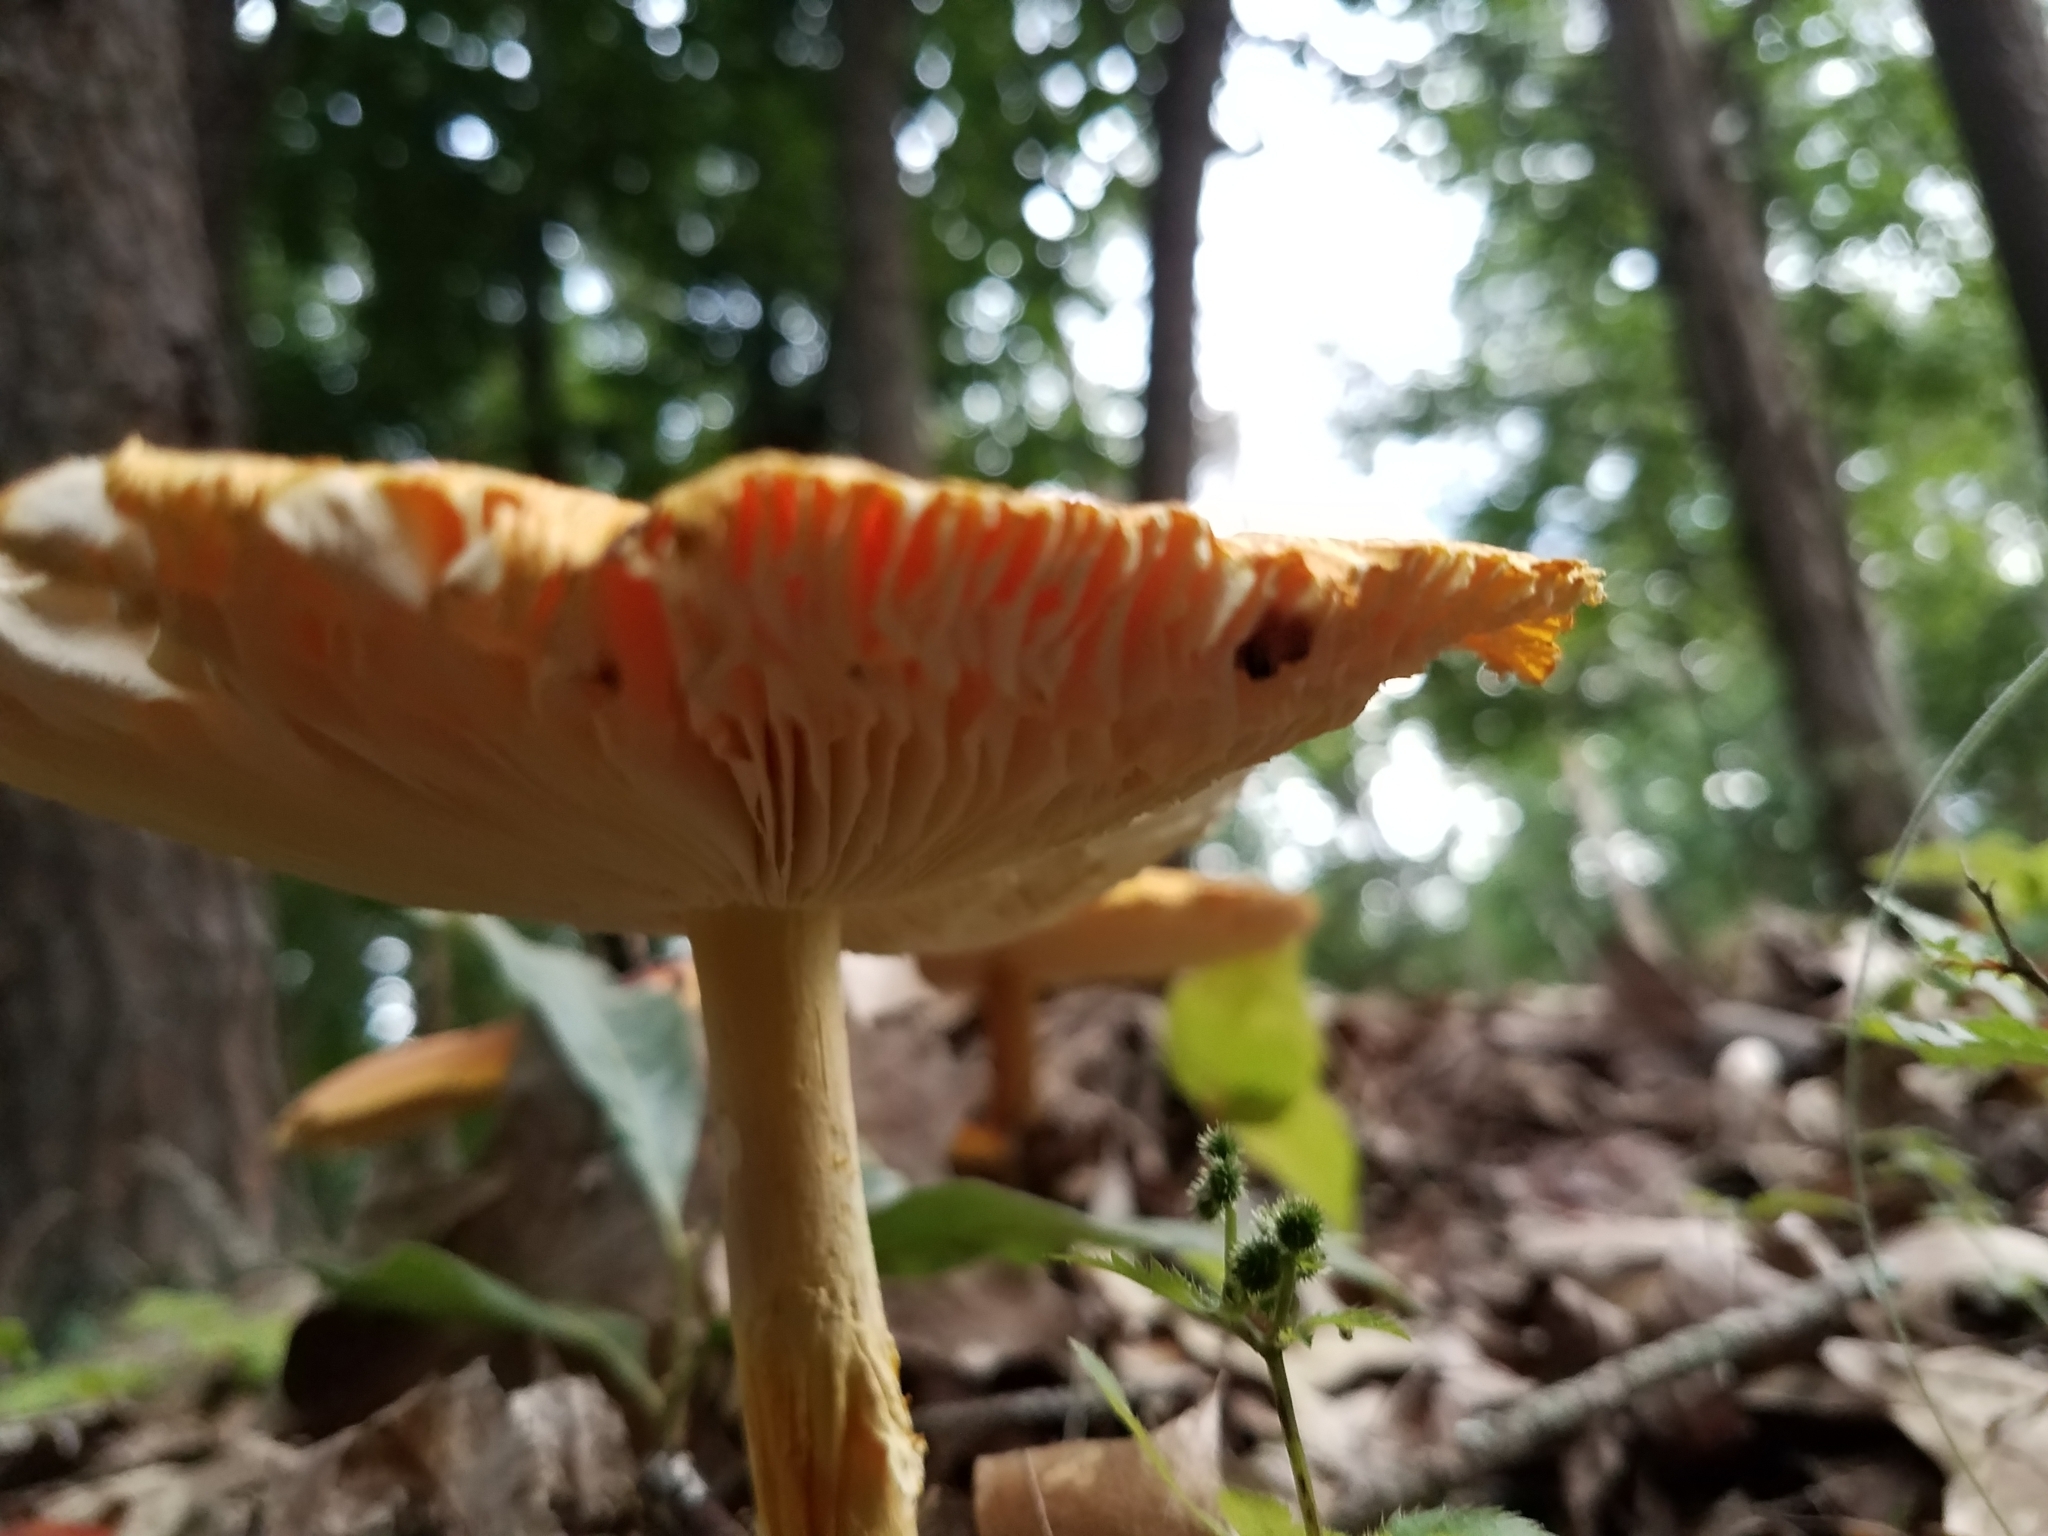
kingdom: Fungi
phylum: Basidiomycota
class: Agaricomycetes
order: Agaricales
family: Amanitaceae
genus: Amanita
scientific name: Amanita jacksonii
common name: Jackson's slender caesar
